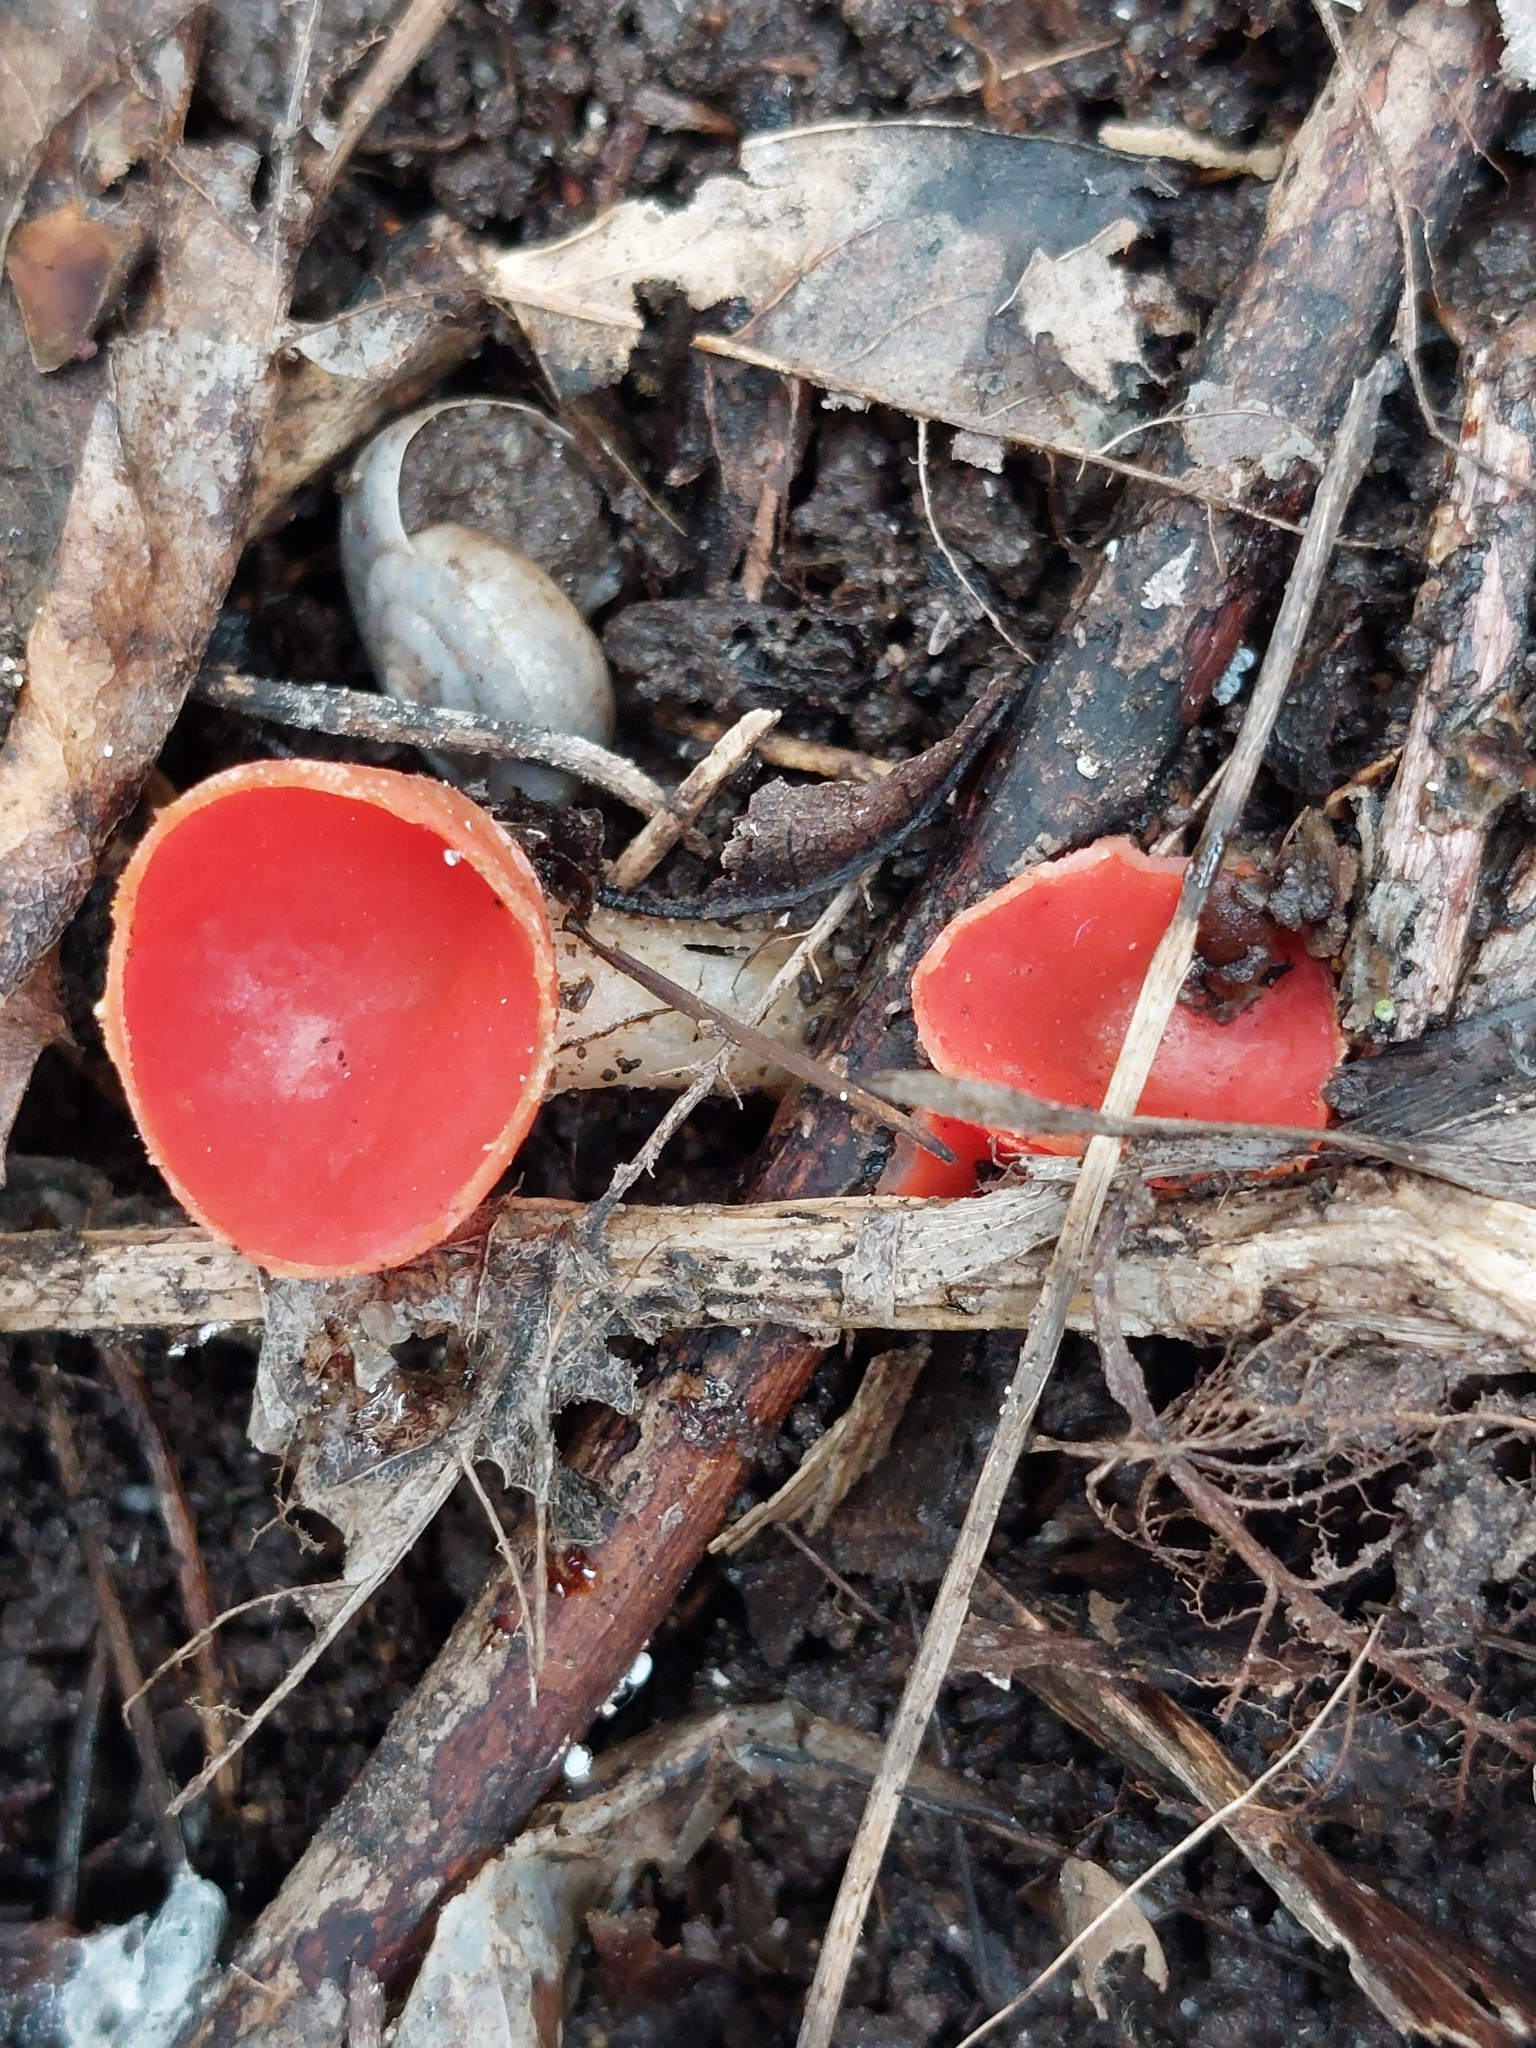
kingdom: Fungi
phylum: Ascomycota
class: Pezizomycetes
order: Pezizales
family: Sarcoscyphaceae
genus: Sarcoscypha
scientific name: Sarcoscypha
